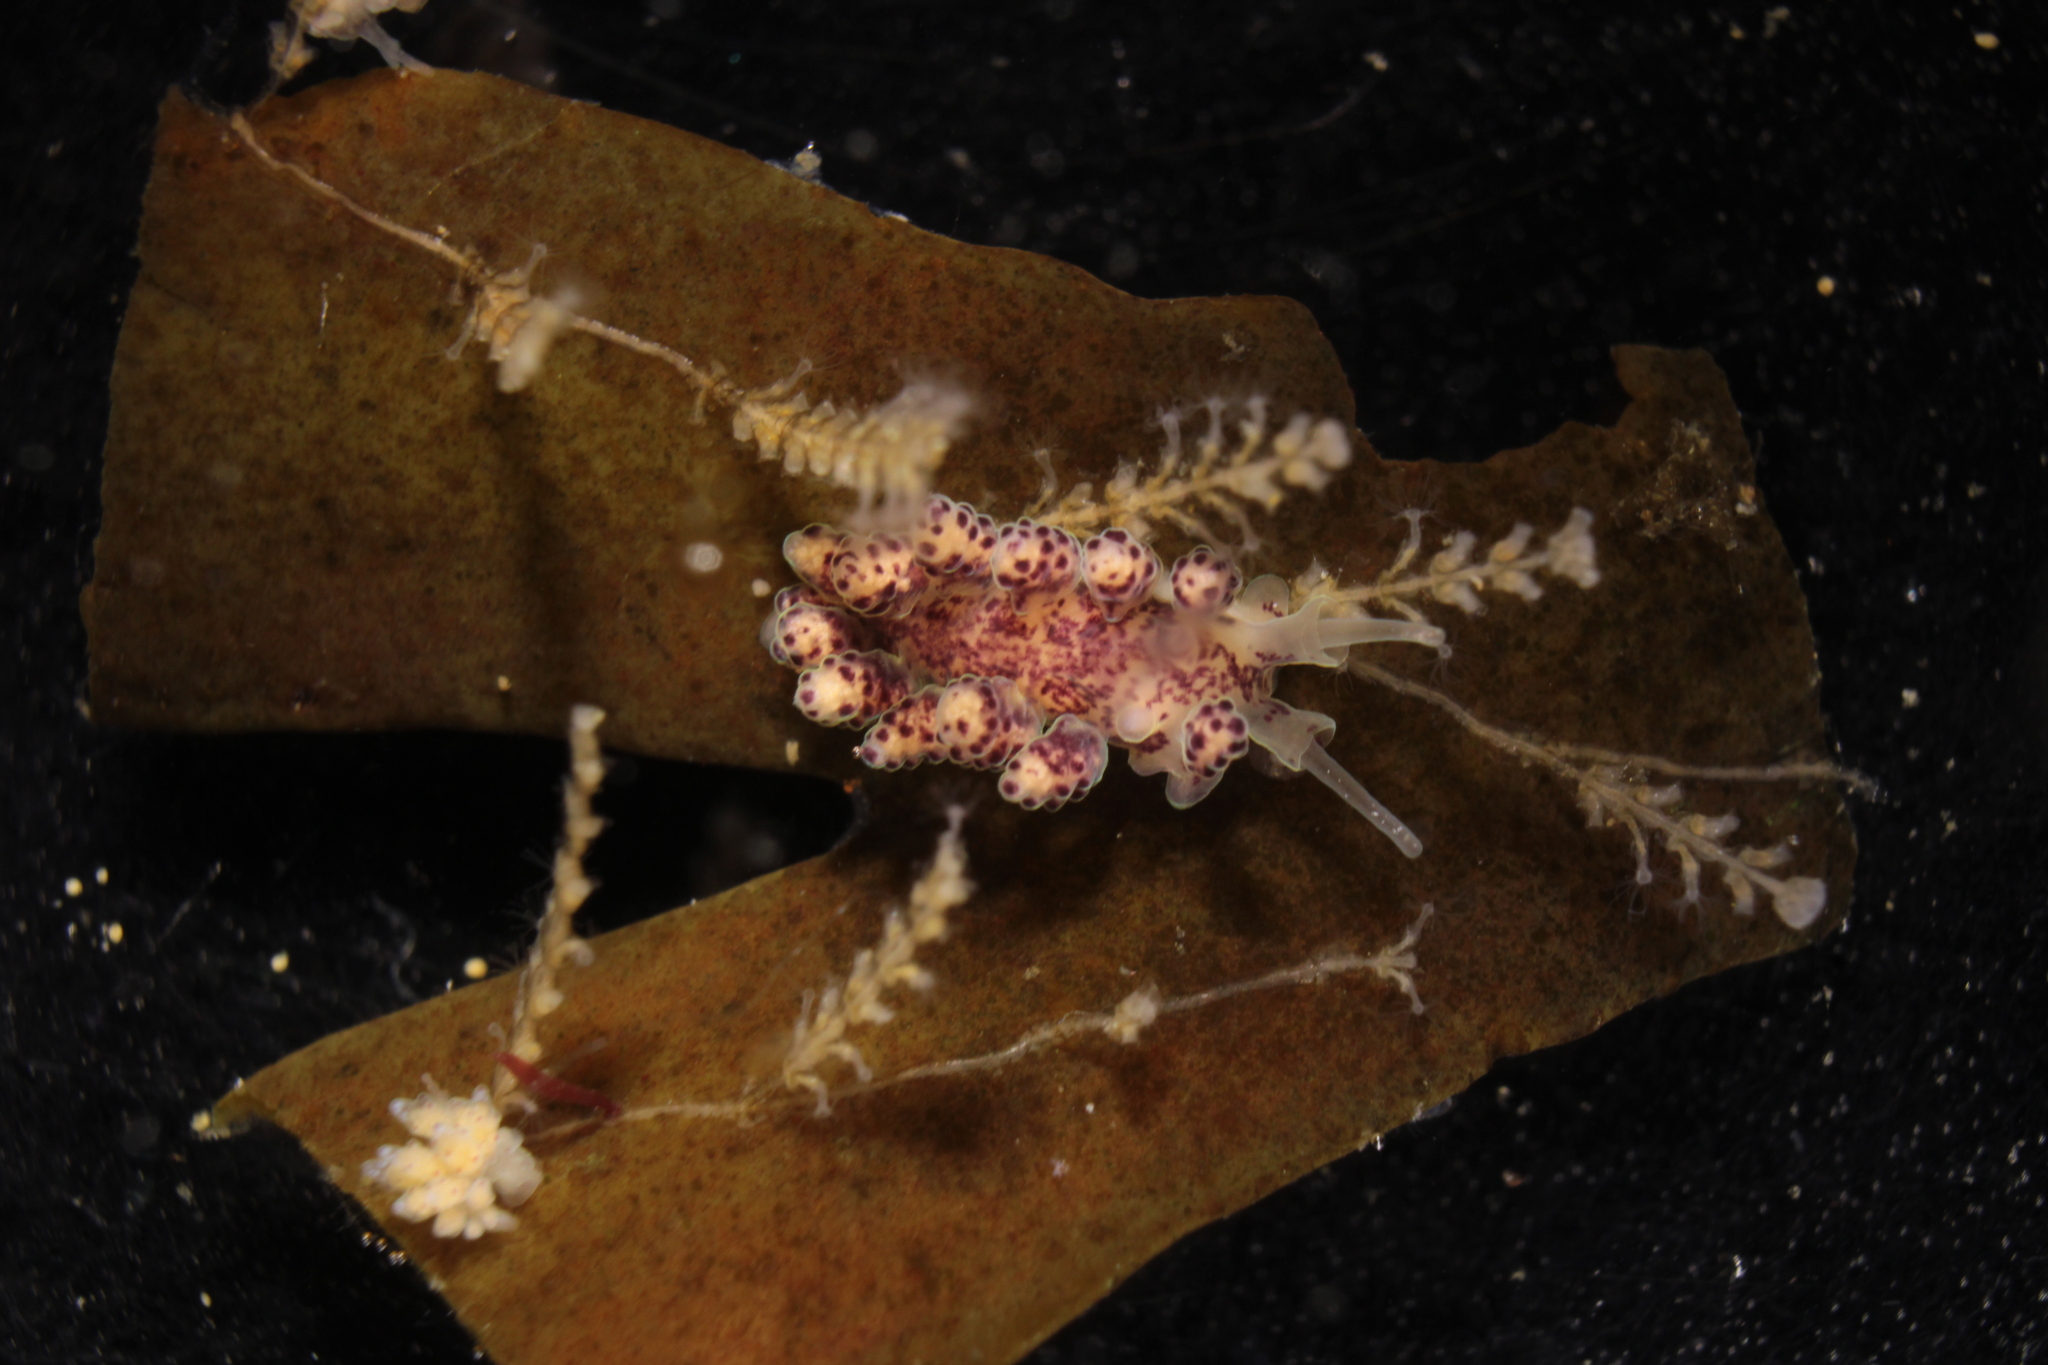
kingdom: Animalia
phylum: Mollusca
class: Gastropoda
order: Nudibranchia
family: Dotidae
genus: Doto
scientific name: Doto coronata
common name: Coronate doto
